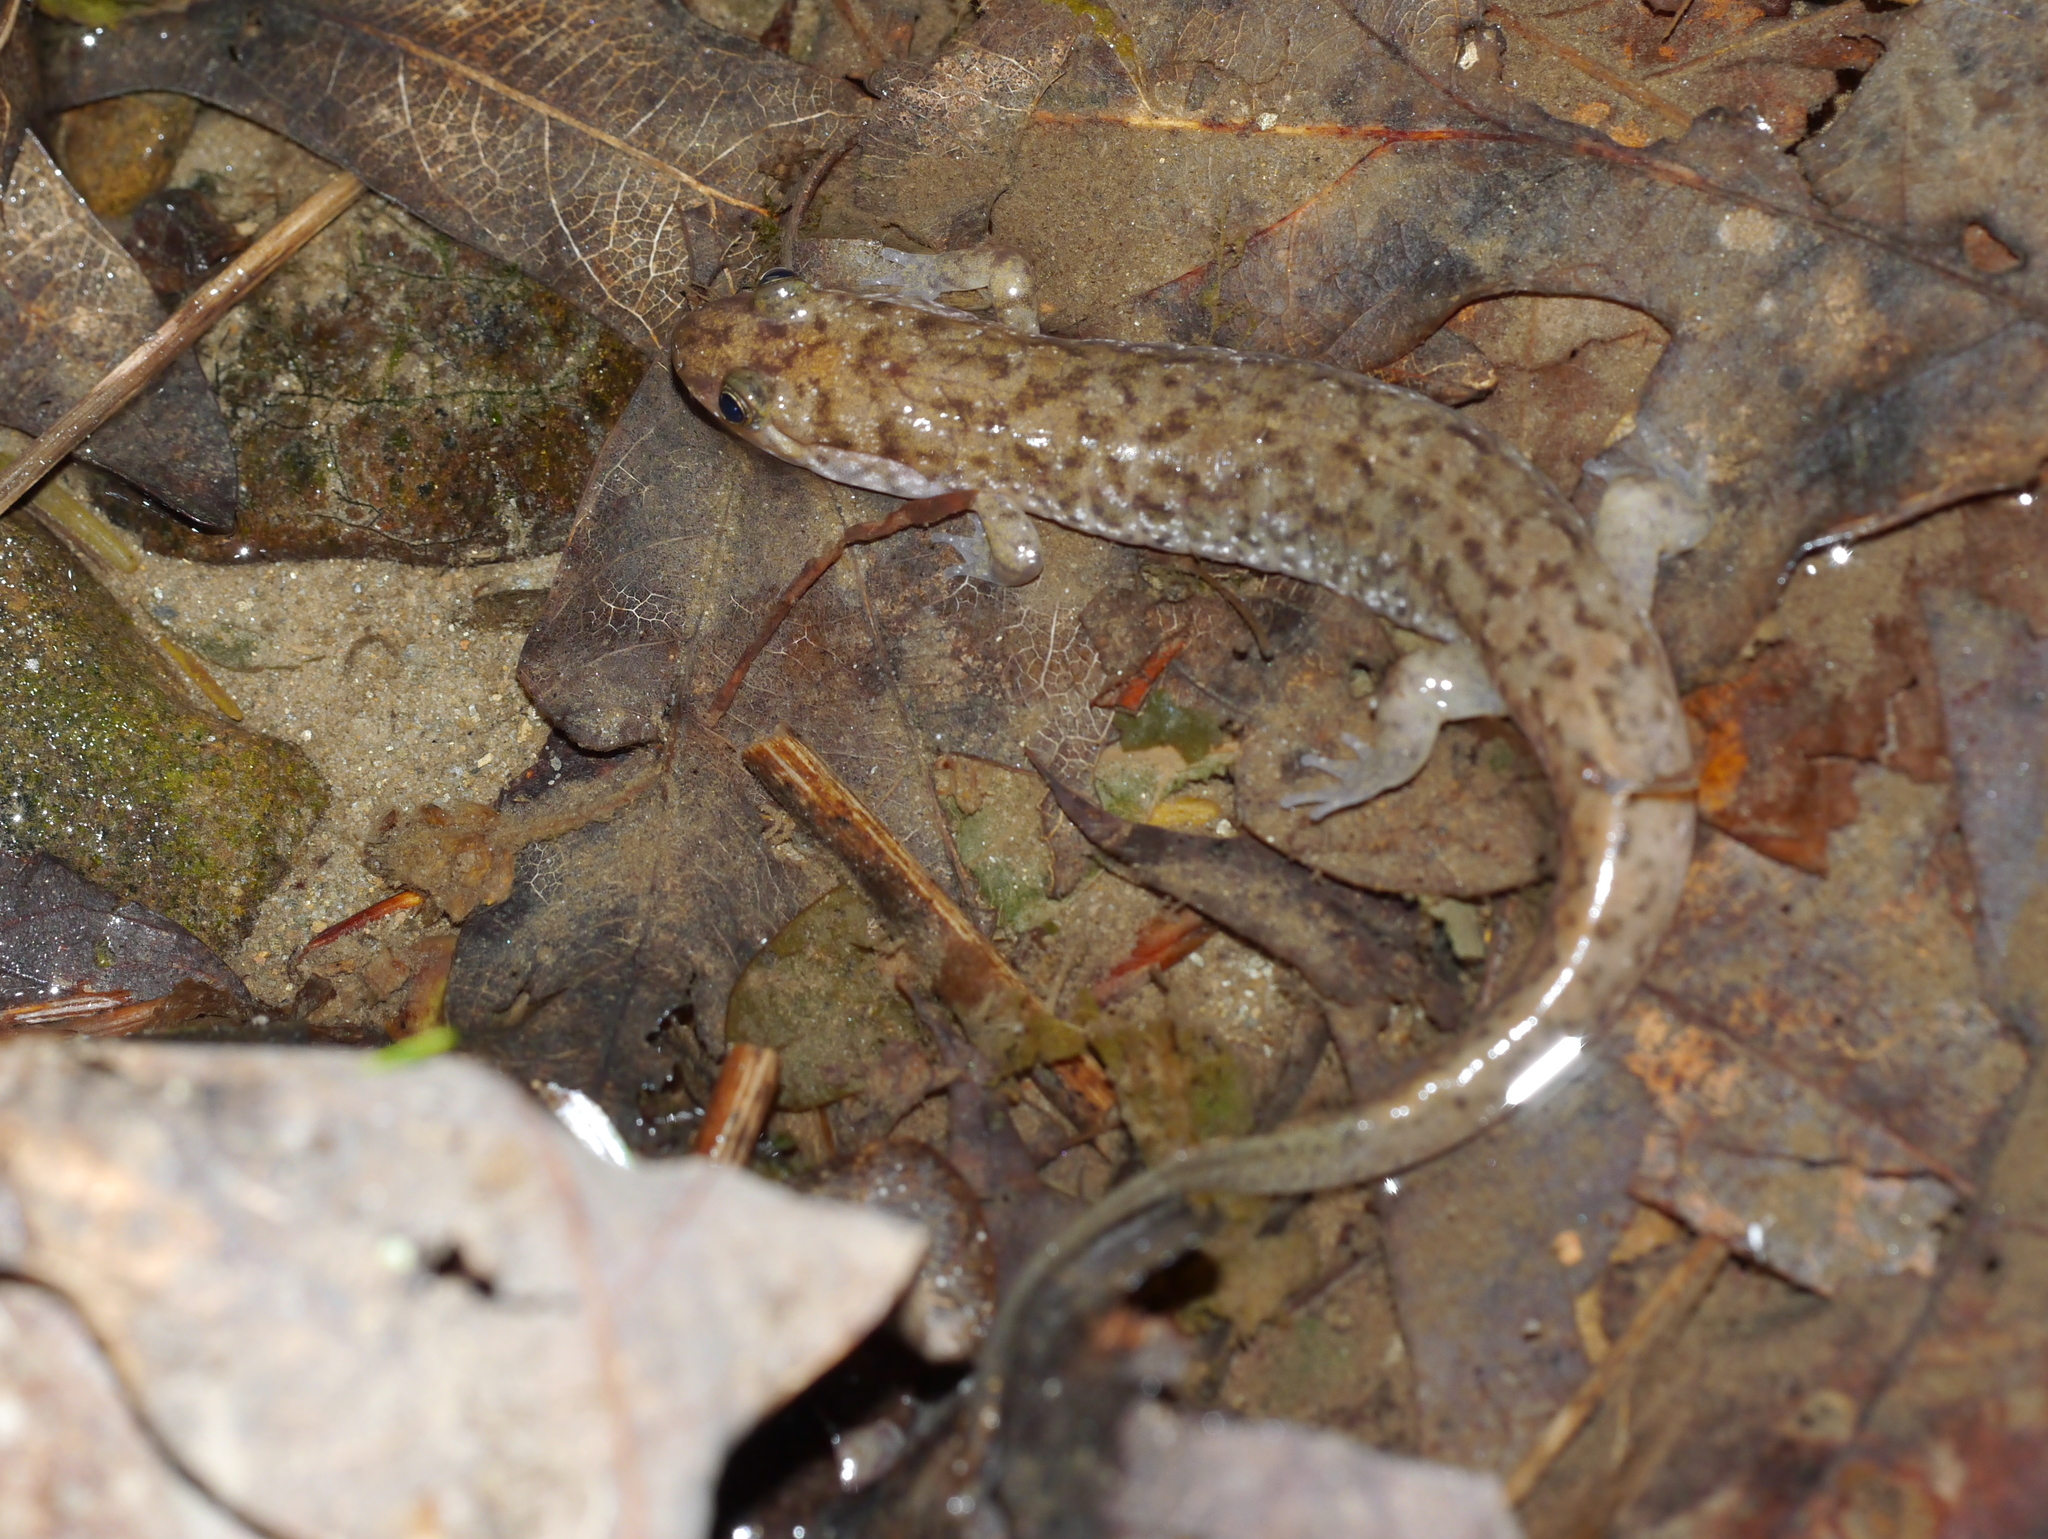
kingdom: Animalia
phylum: Chordata
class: Amphibia
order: Caudata
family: Plethodontidae
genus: Desmognathus
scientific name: Desmognathus monticola
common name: Seal salamander
